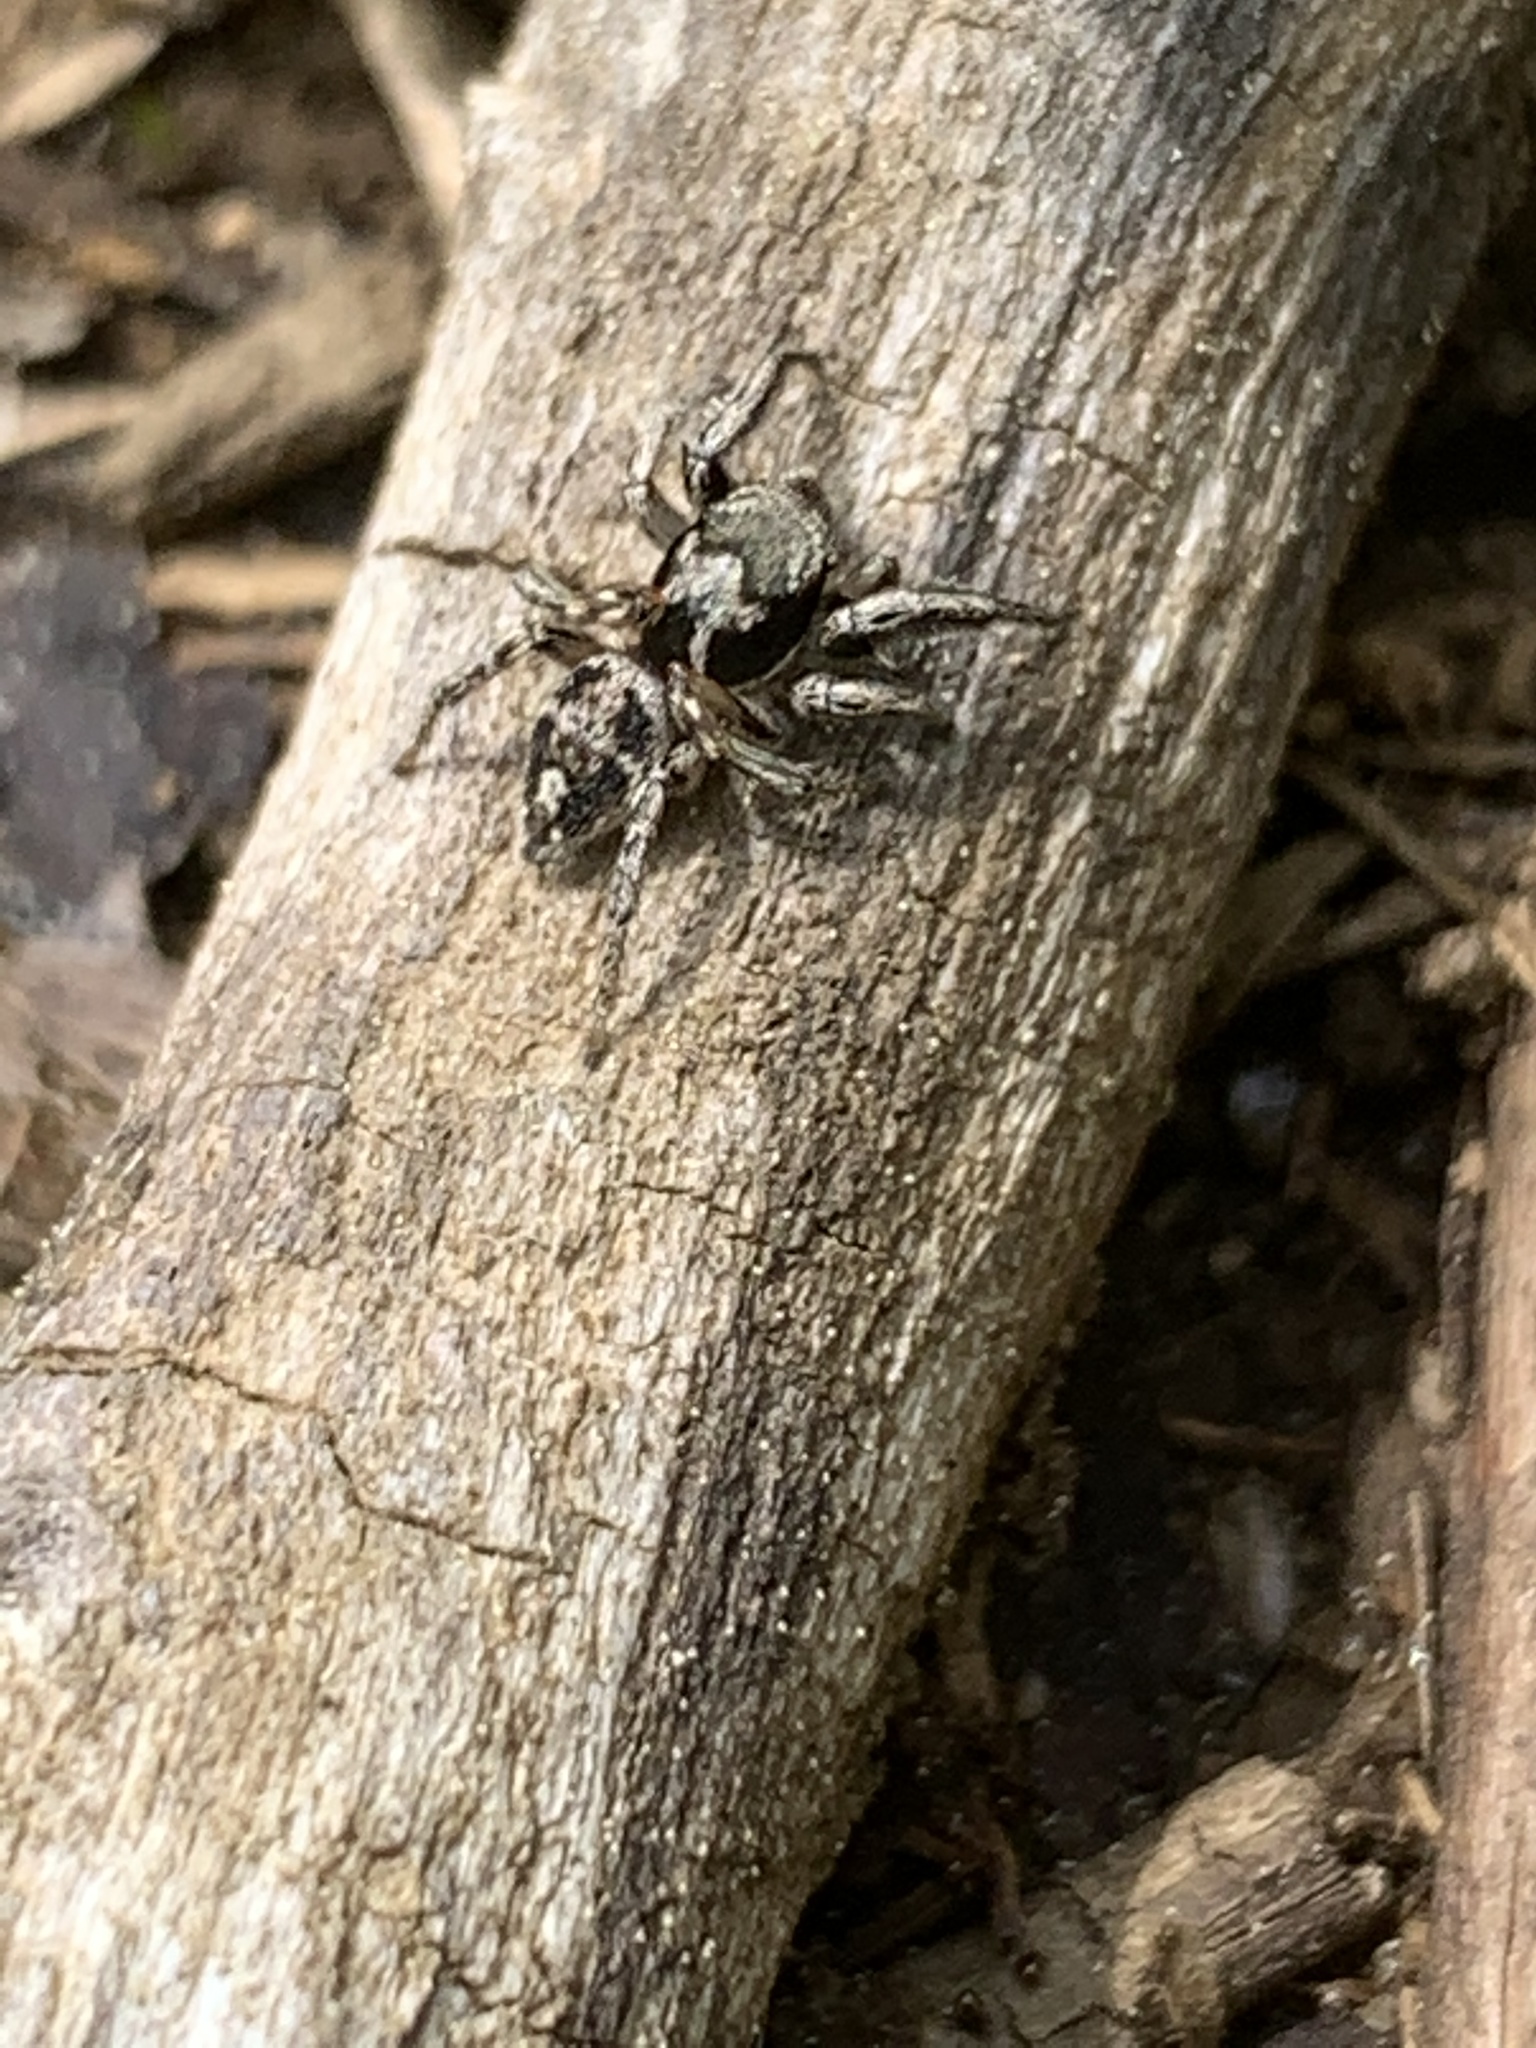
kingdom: Animalia
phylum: Arthropoda
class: Arachnida
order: Araneae
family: Salticidae
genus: Habronattus
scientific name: Habronattus coecatus
